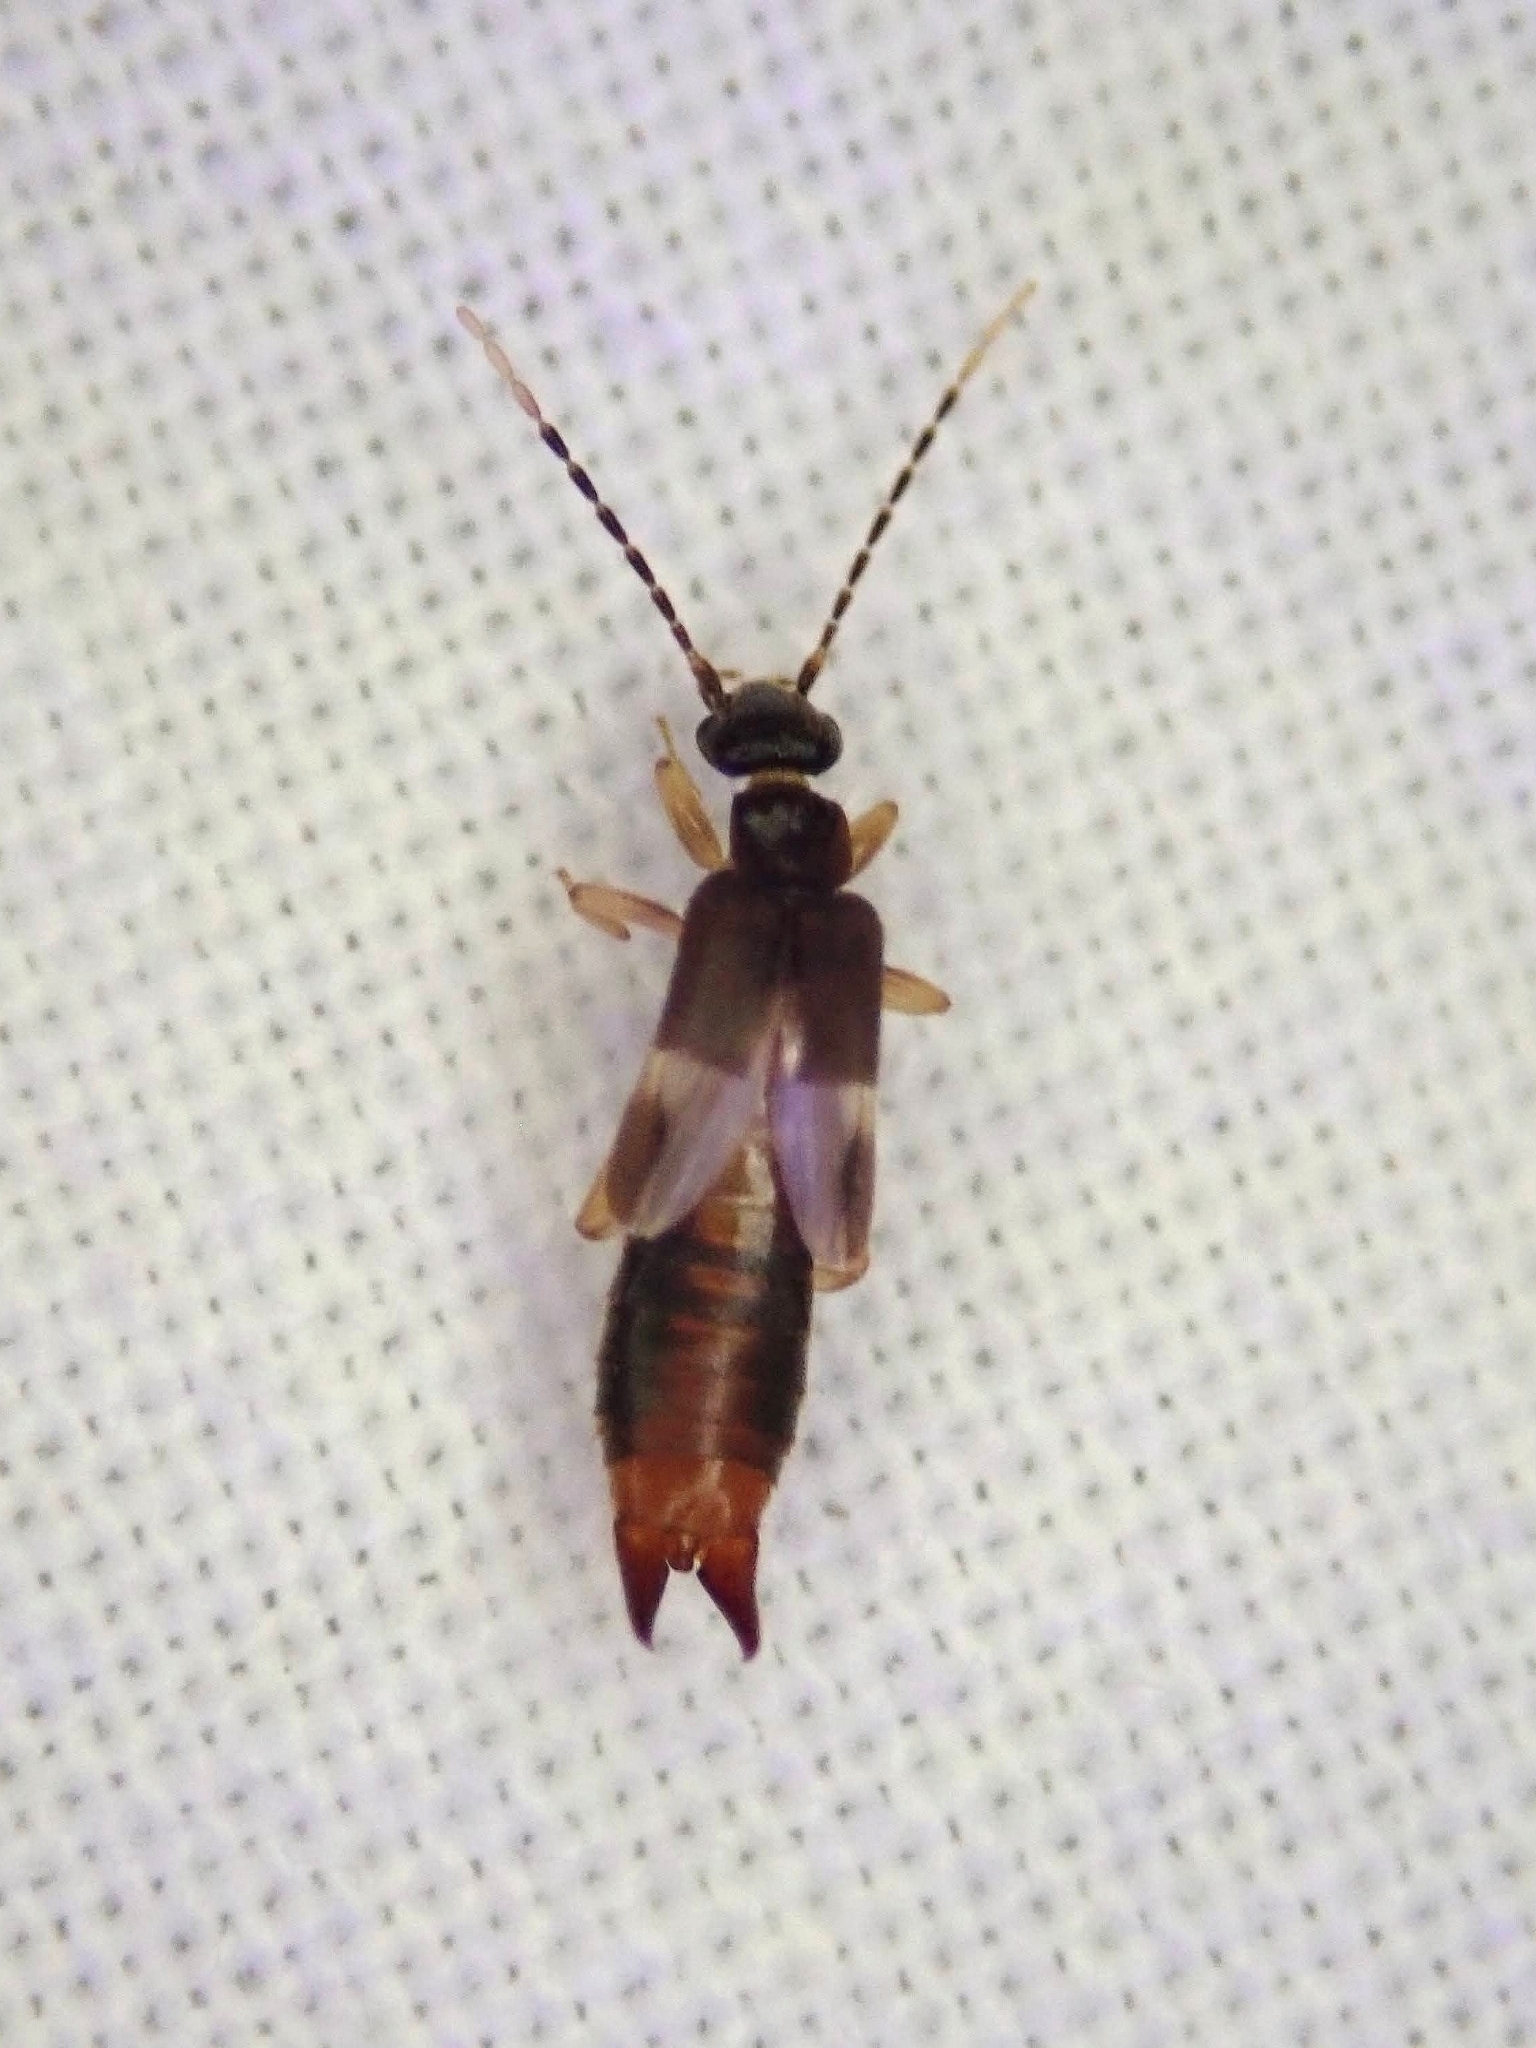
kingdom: Animalia
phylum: Arthropoda
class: Insecta
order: Dermaptera
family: Spongiphoridae
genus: Labia
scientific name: Labia minor
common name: Lesser earwig
